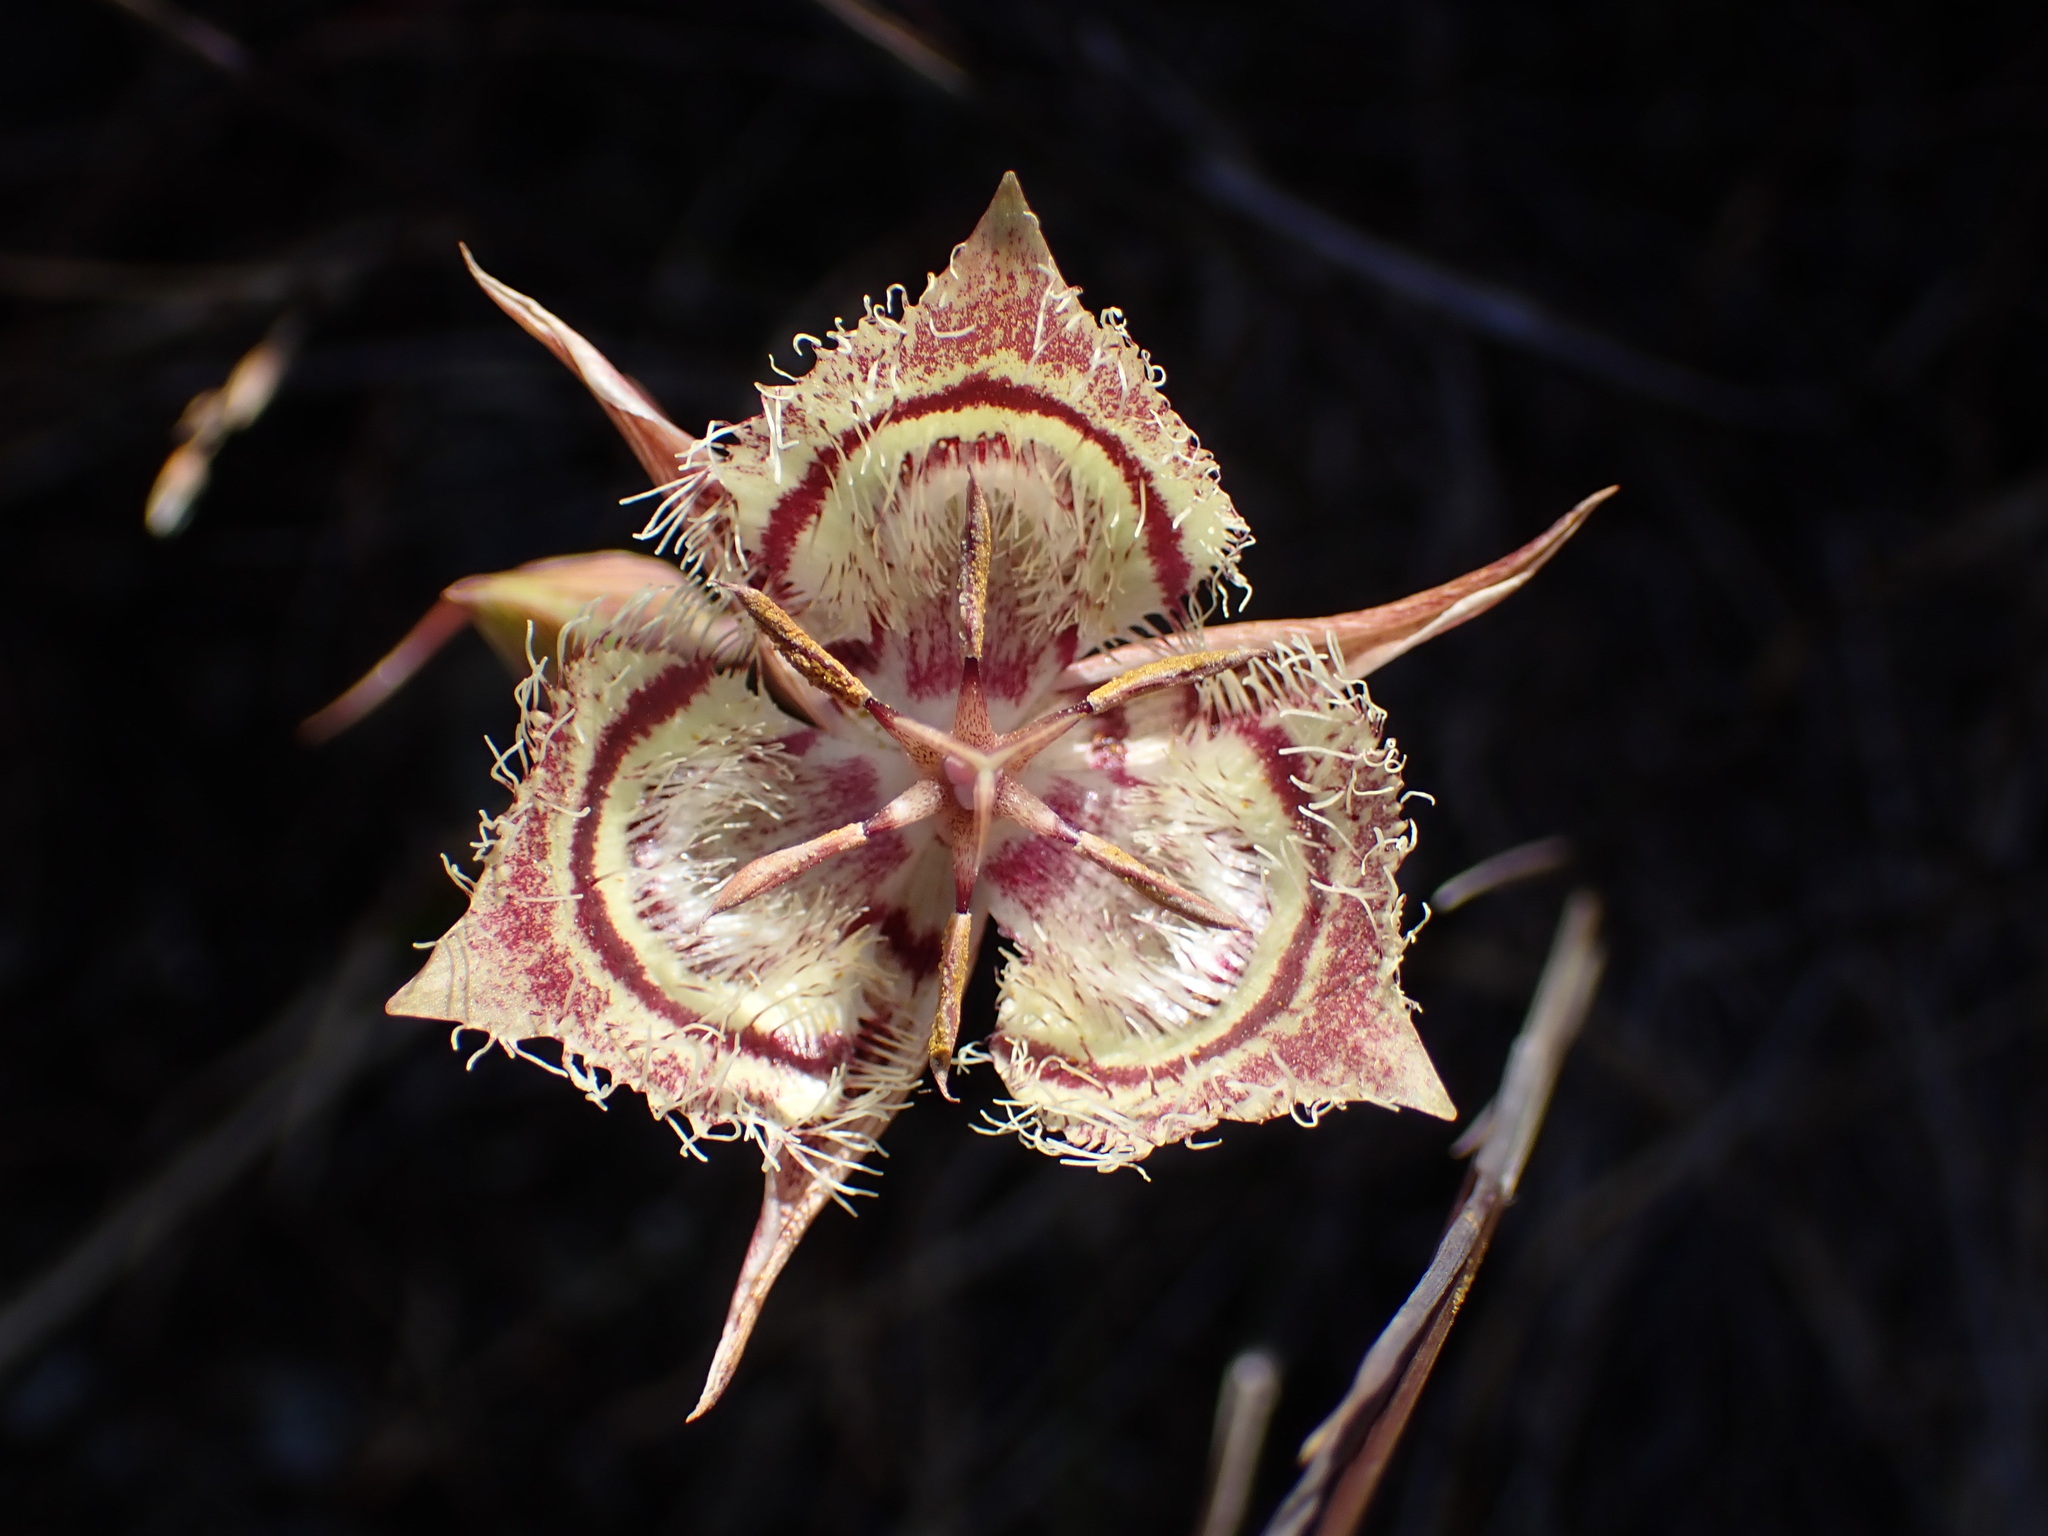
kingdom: Plantae
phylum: Tracheophyta
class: Liliopsida
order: Liliales
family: Liliaceae
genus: Calochortus
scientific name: Calochortus tiburonensis
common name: Tiburon mariposa-lily
